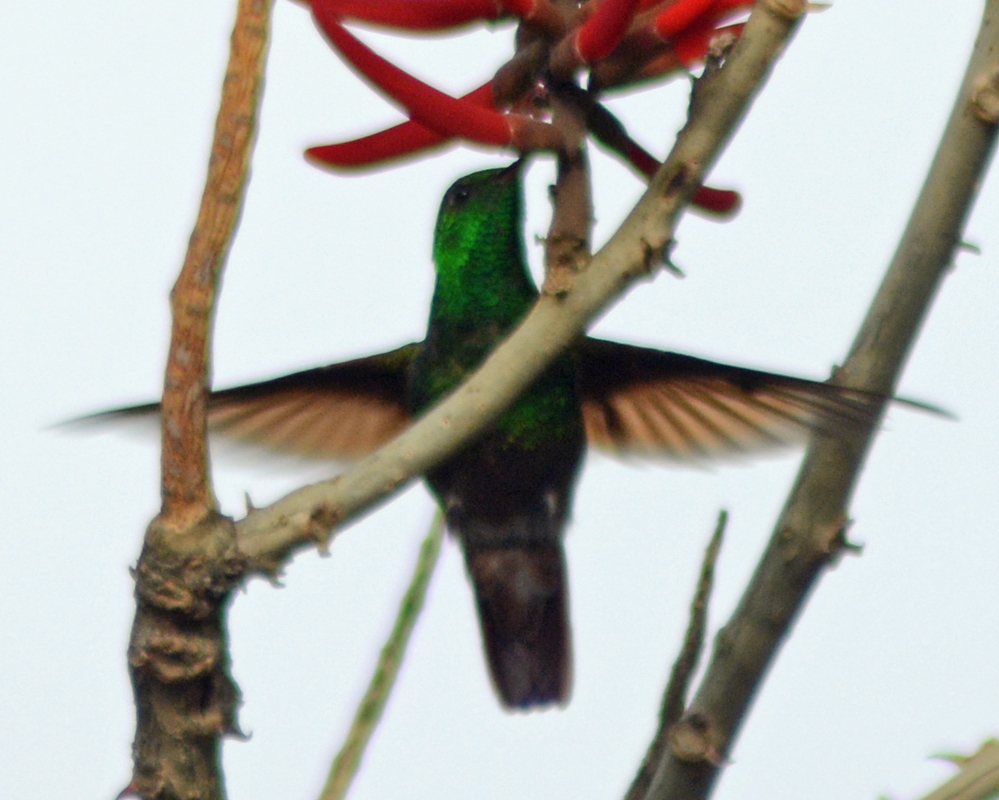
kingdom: Animalia
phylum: Chordata
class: Aves
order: Apodiformes
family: Trochilidae
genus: Saucerottia
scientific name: Saucerottia beryllina
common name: Berylline hummingbird
